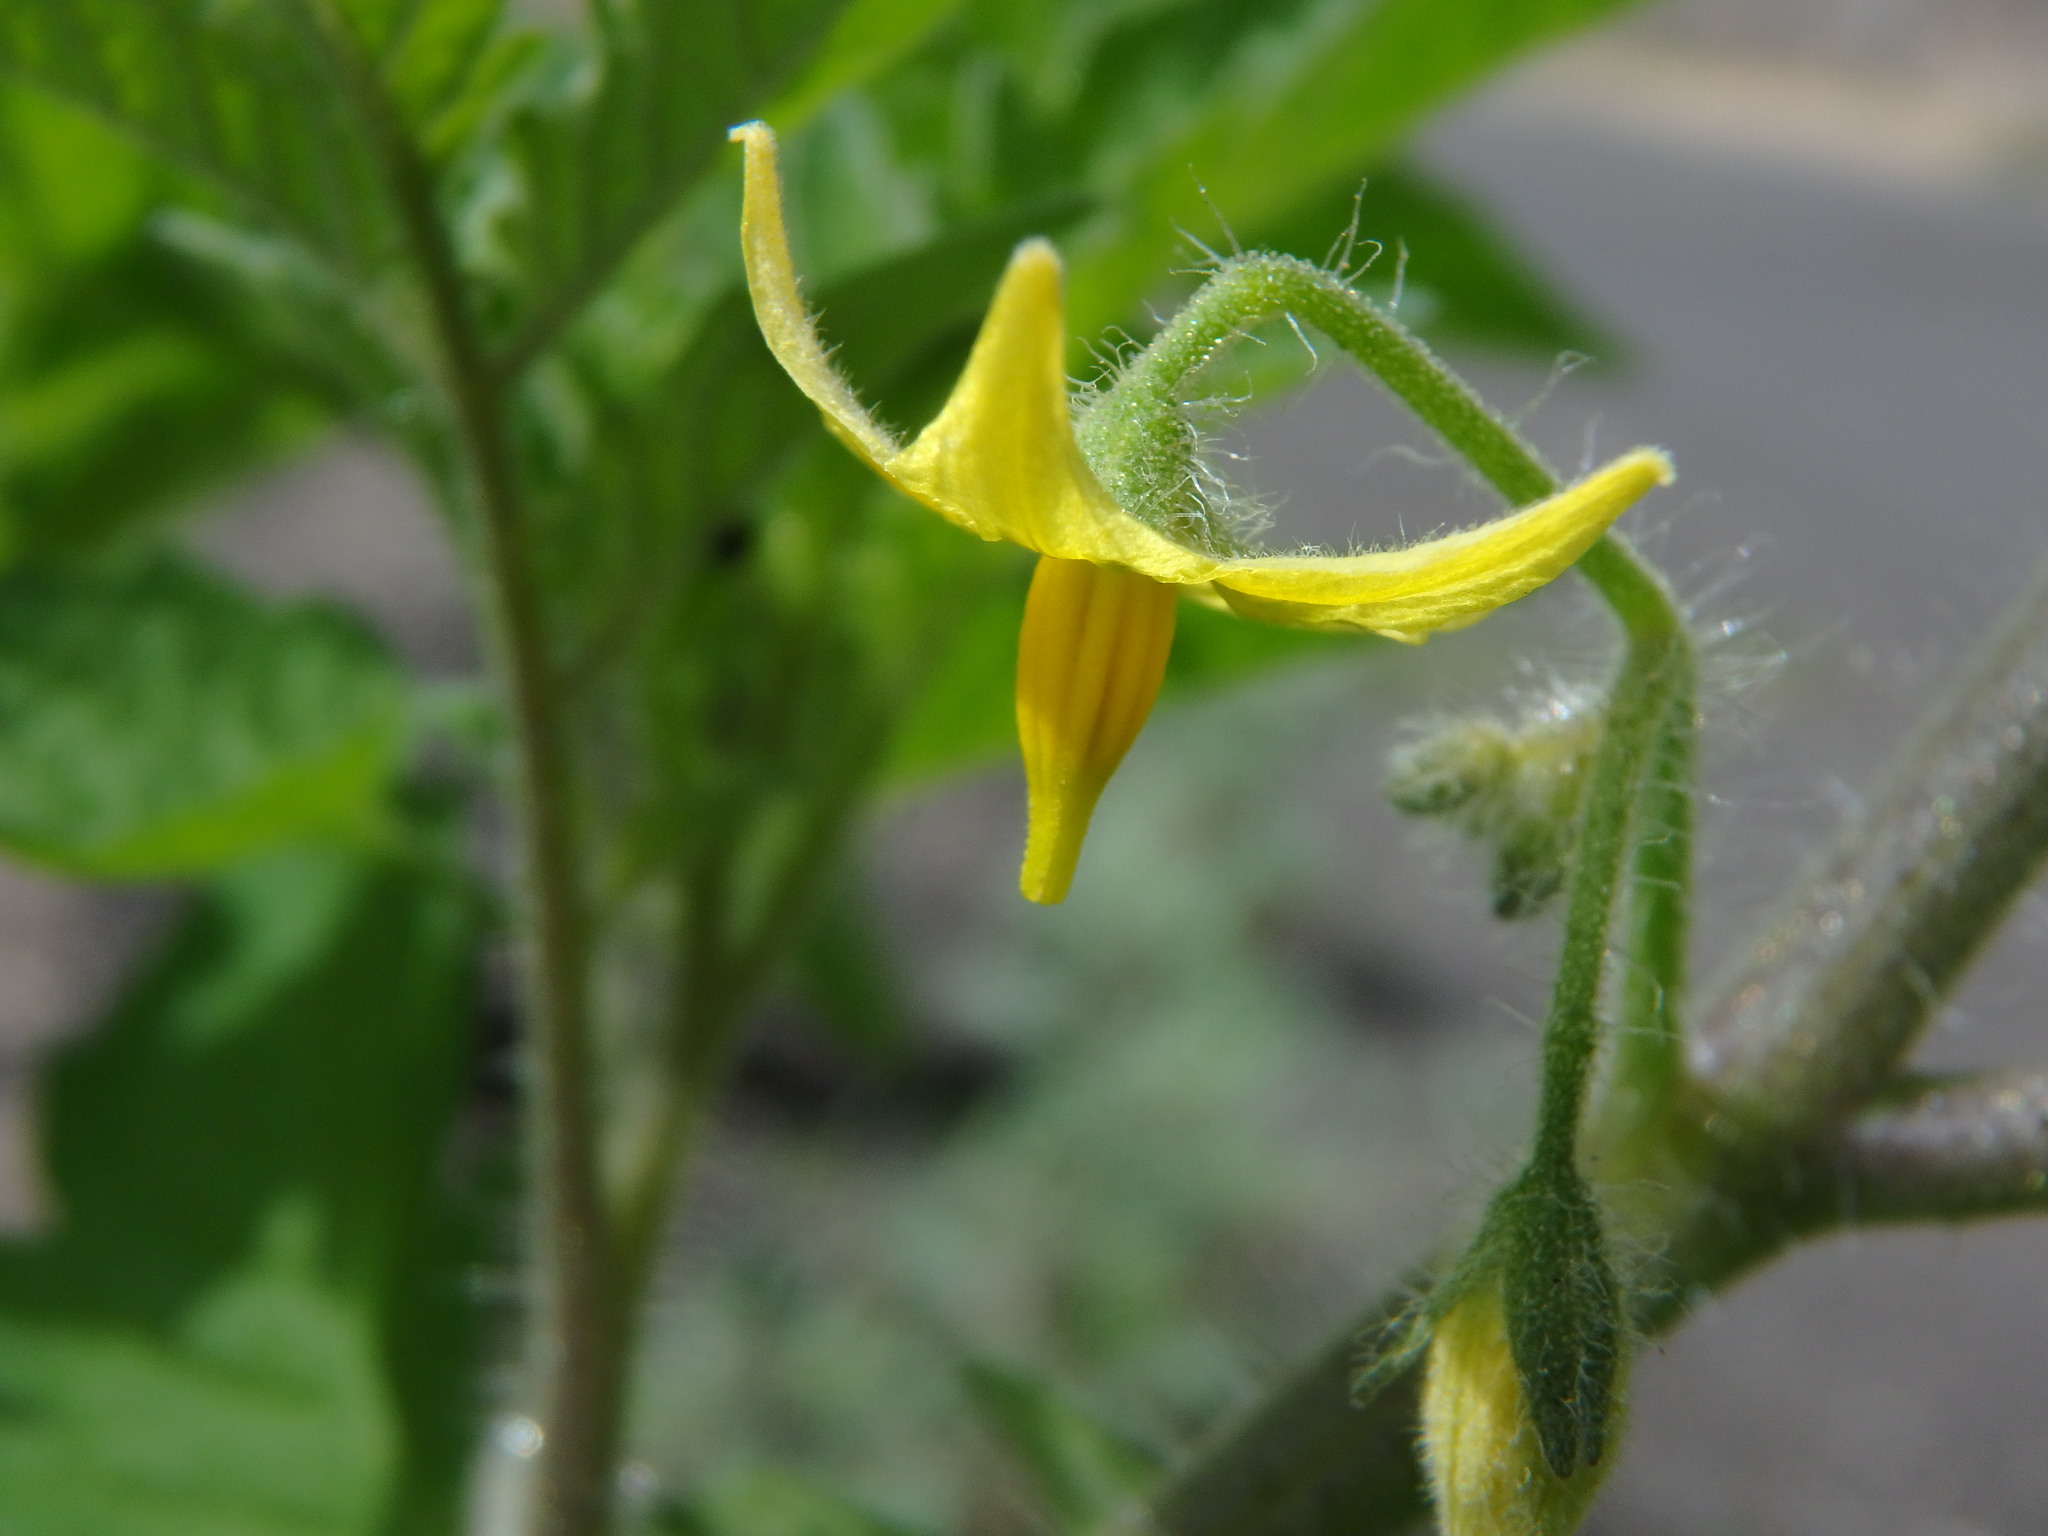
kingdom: Plantae
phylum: Tracheophyta
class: Magnoliopsida
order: Solanales
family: Solanaceae
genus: Solanum
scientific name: Solanum lycopersicum
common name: Garden tomato
